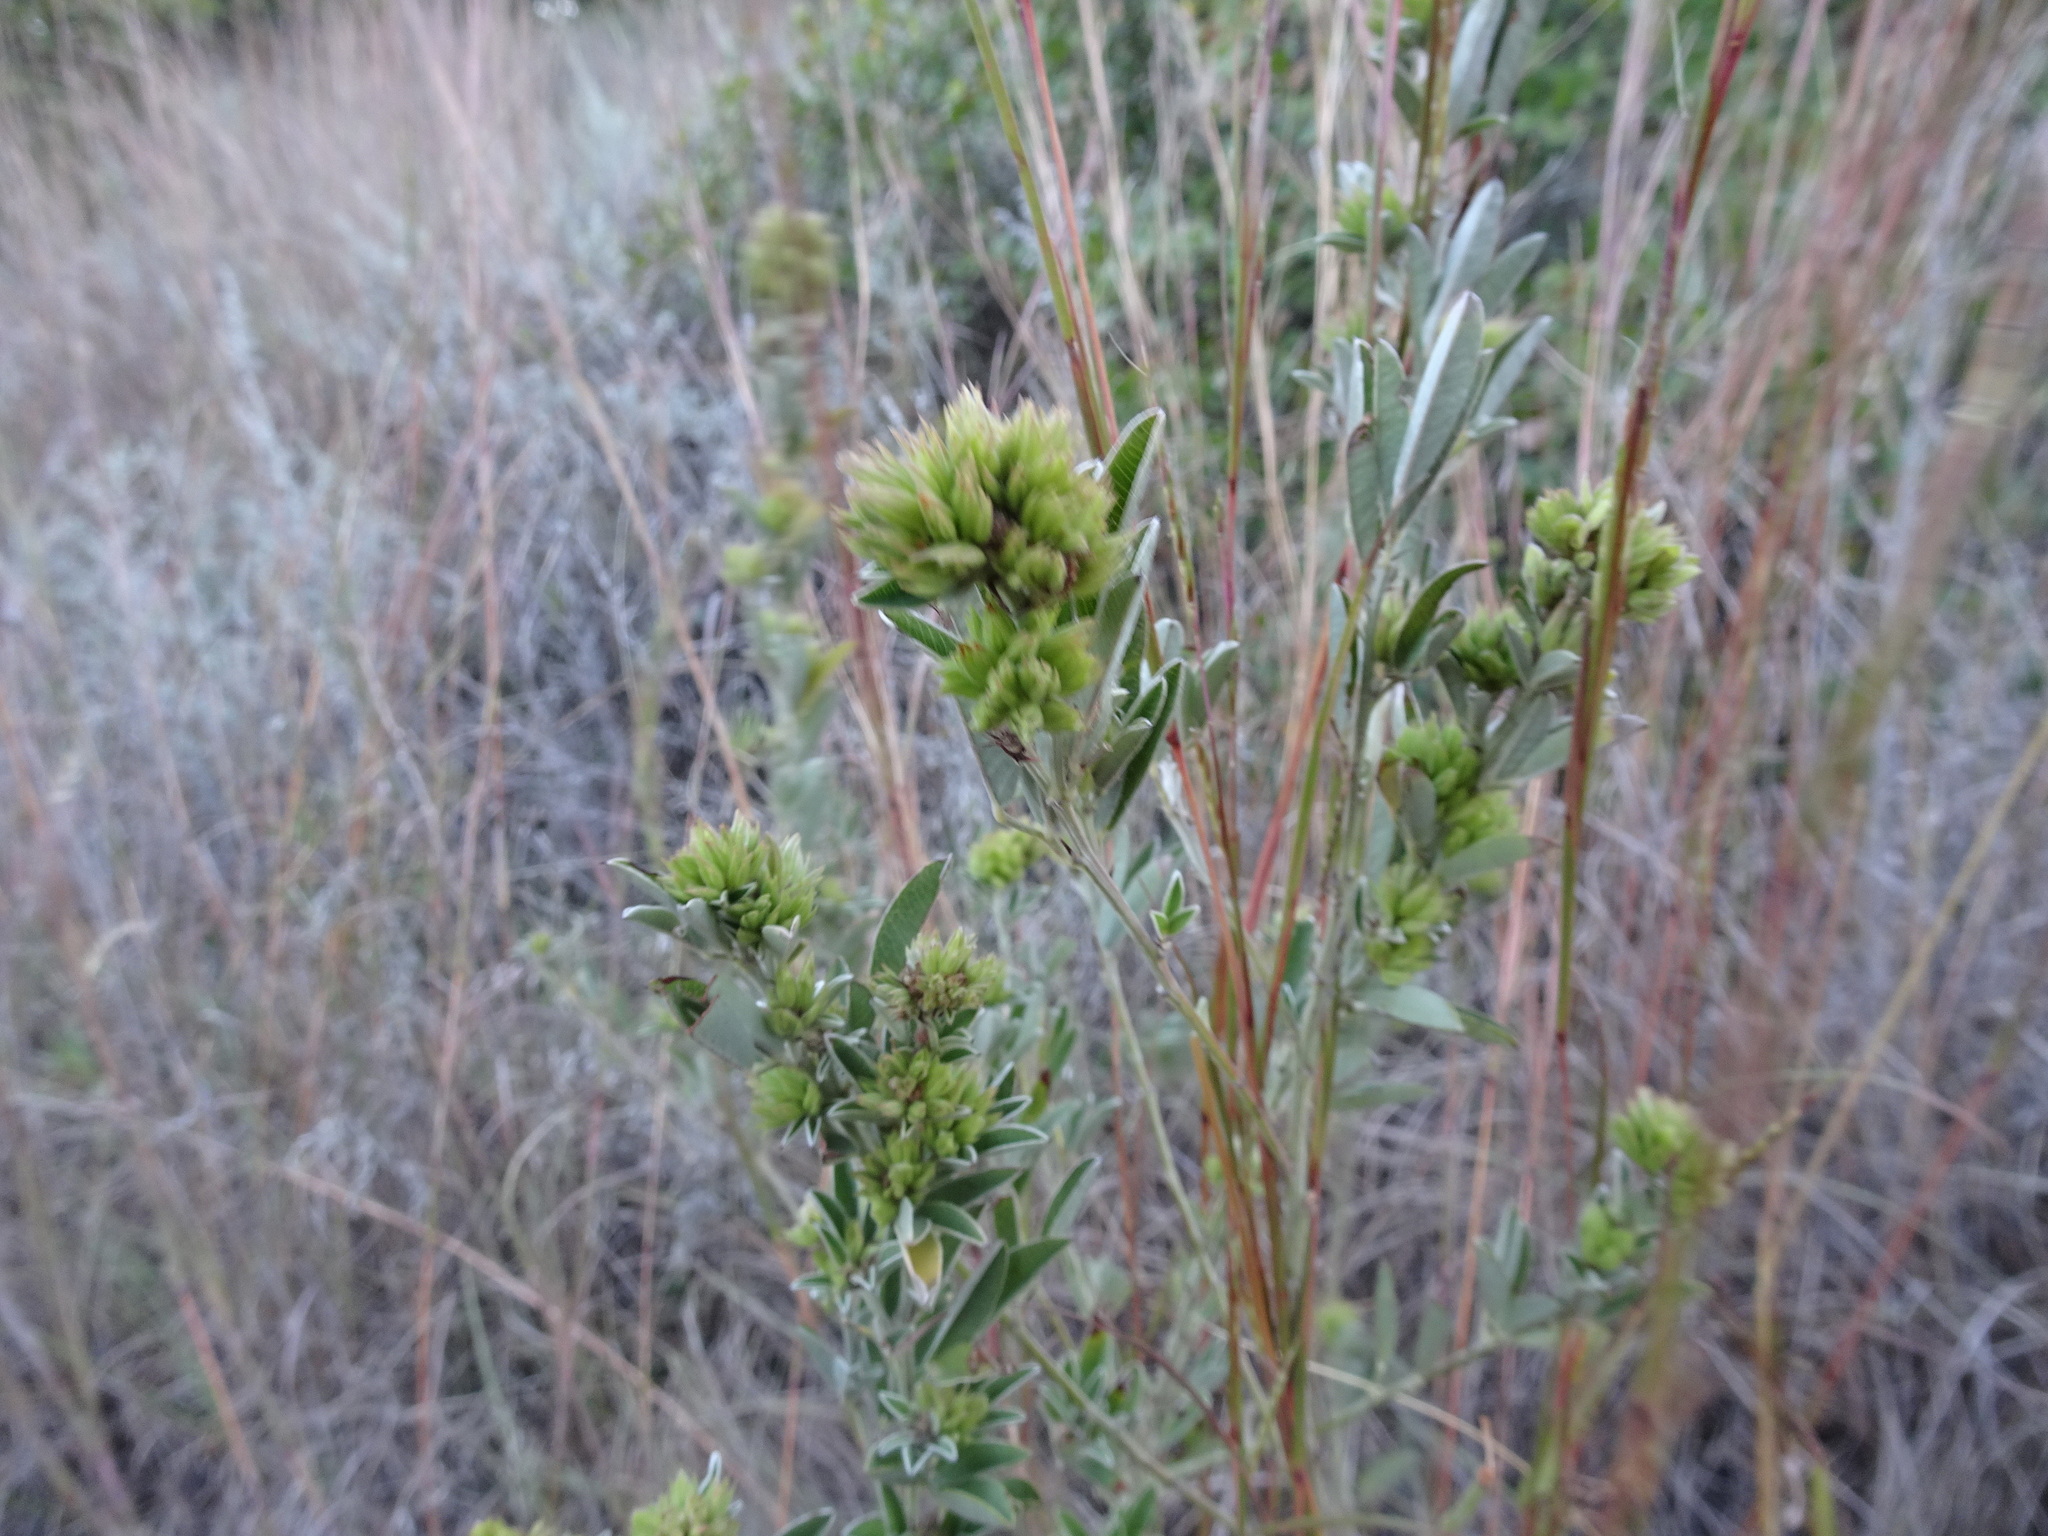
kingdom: Plantae
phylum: Tracheophyta
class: Magnoliopsida
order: Fabales
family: Fabaceae
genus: Lespedeza
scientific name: Lespedeza capitata
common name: Dusty clover
